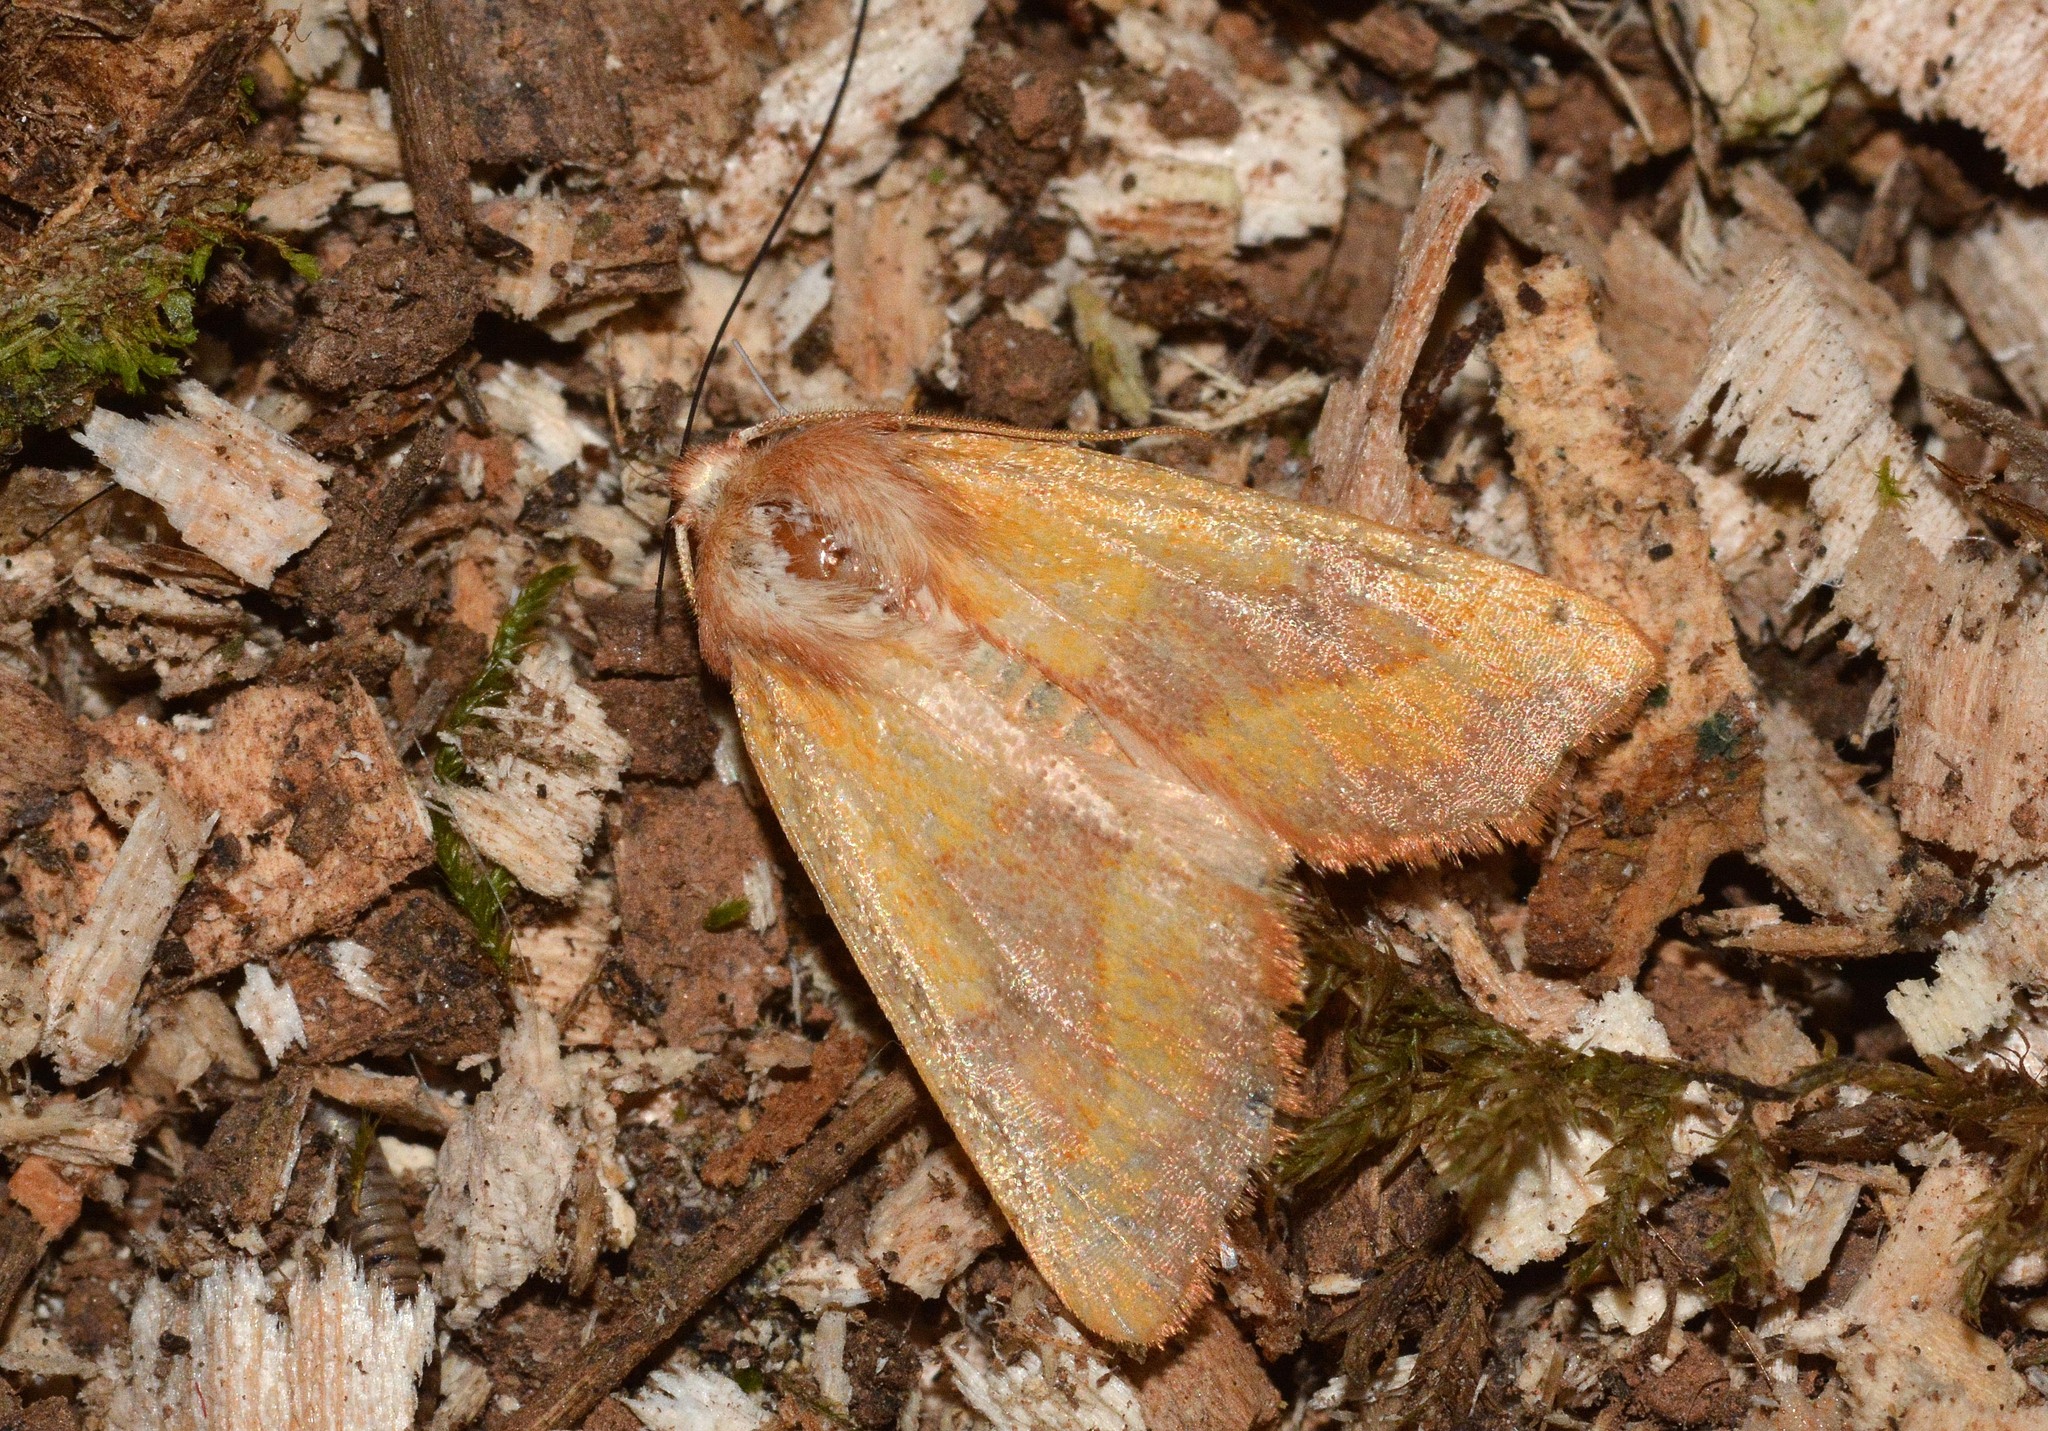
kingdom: Animalia
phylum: Arthropoda
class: Insecta
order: Lepidoptera
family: Noctuidae
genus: Atethmia
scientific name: Atethmia centrago
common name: Centre-barred sallow
